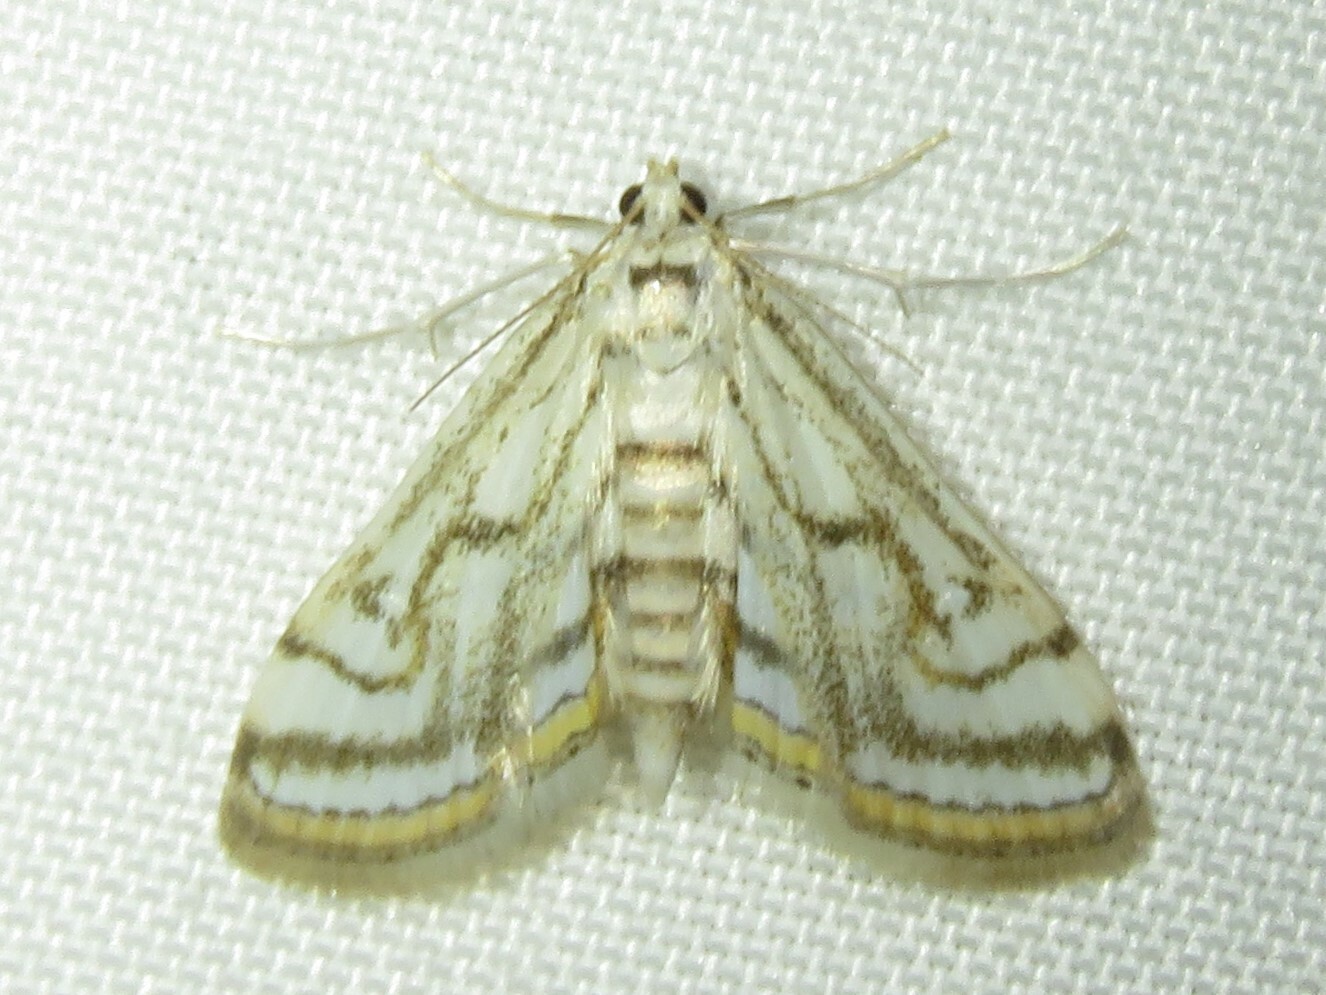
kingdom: Animalia
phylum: Arthropoda
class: Insecta
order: Lepidoptera
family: Crambidae
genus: Parapoynx
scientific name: Parapoynx badiusalis
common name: Chestnut-marked pondweed moth
